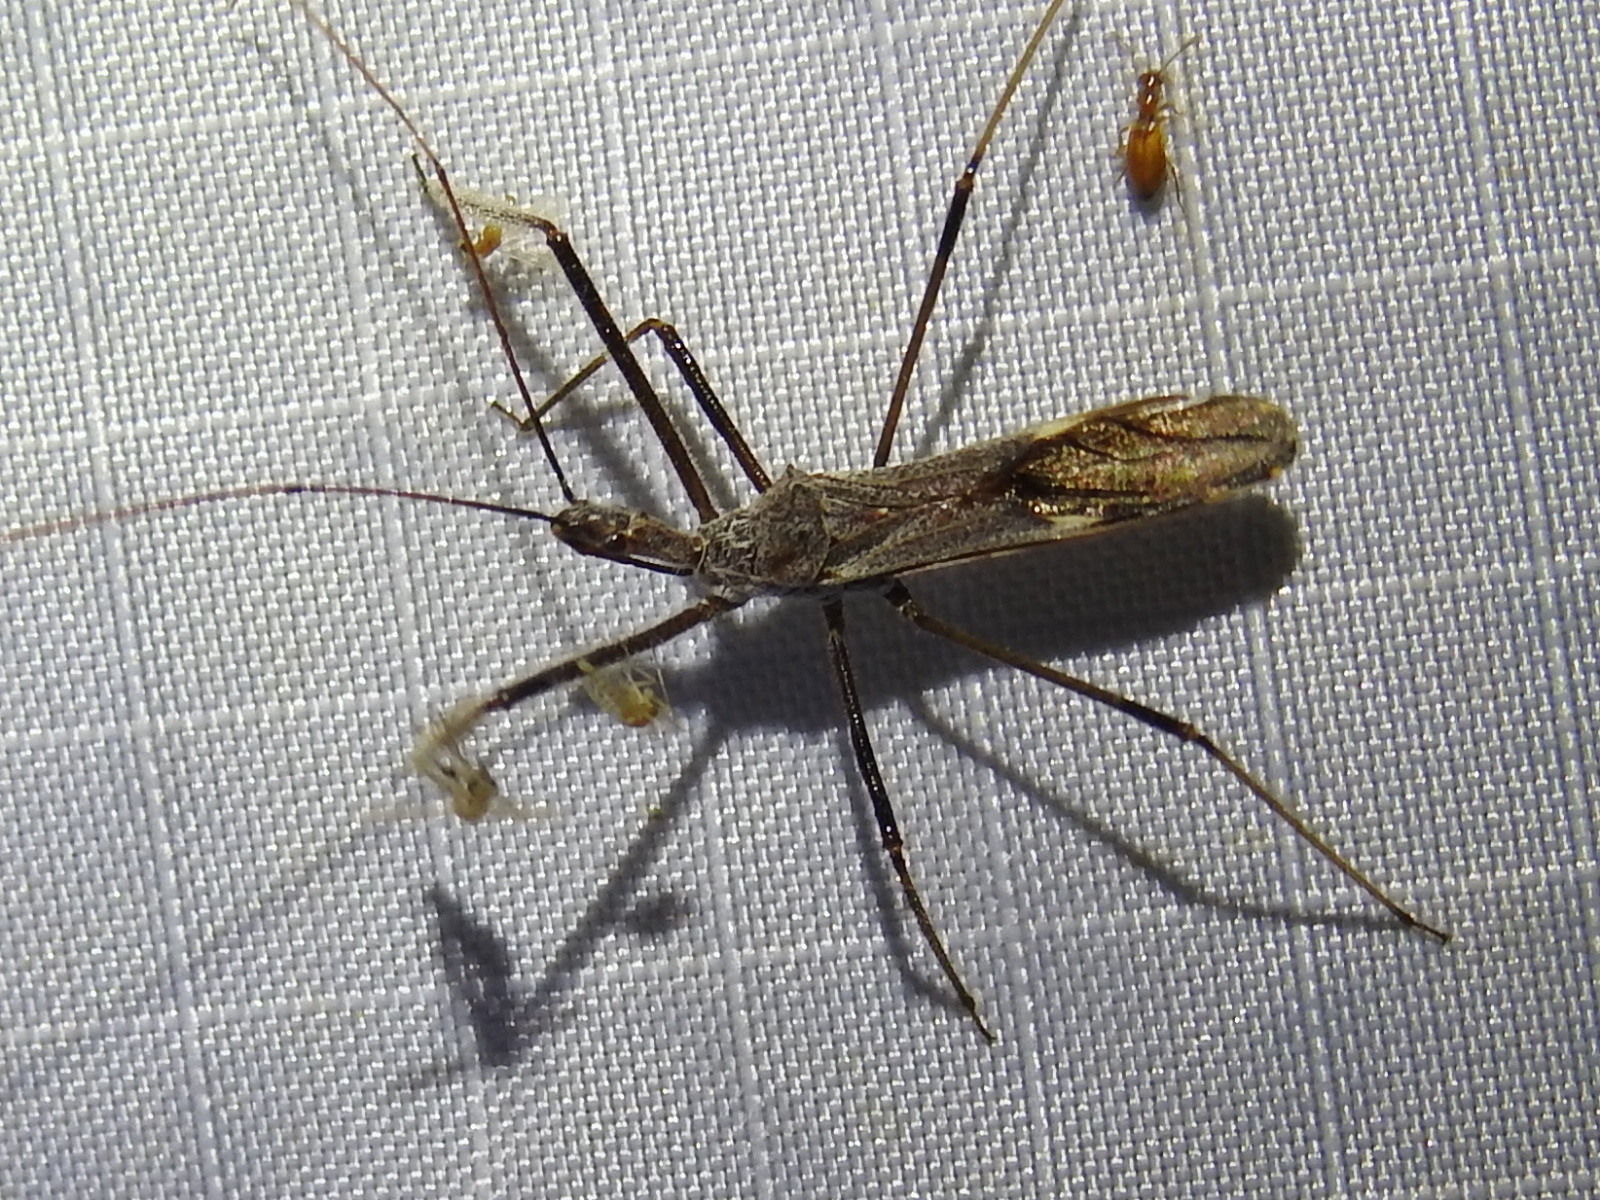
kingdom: Animalia
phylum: Arthropoda
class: Insecta
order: Hemiptera
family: Reduviidae
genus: Zelus
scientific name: Zelus tetracanthus
